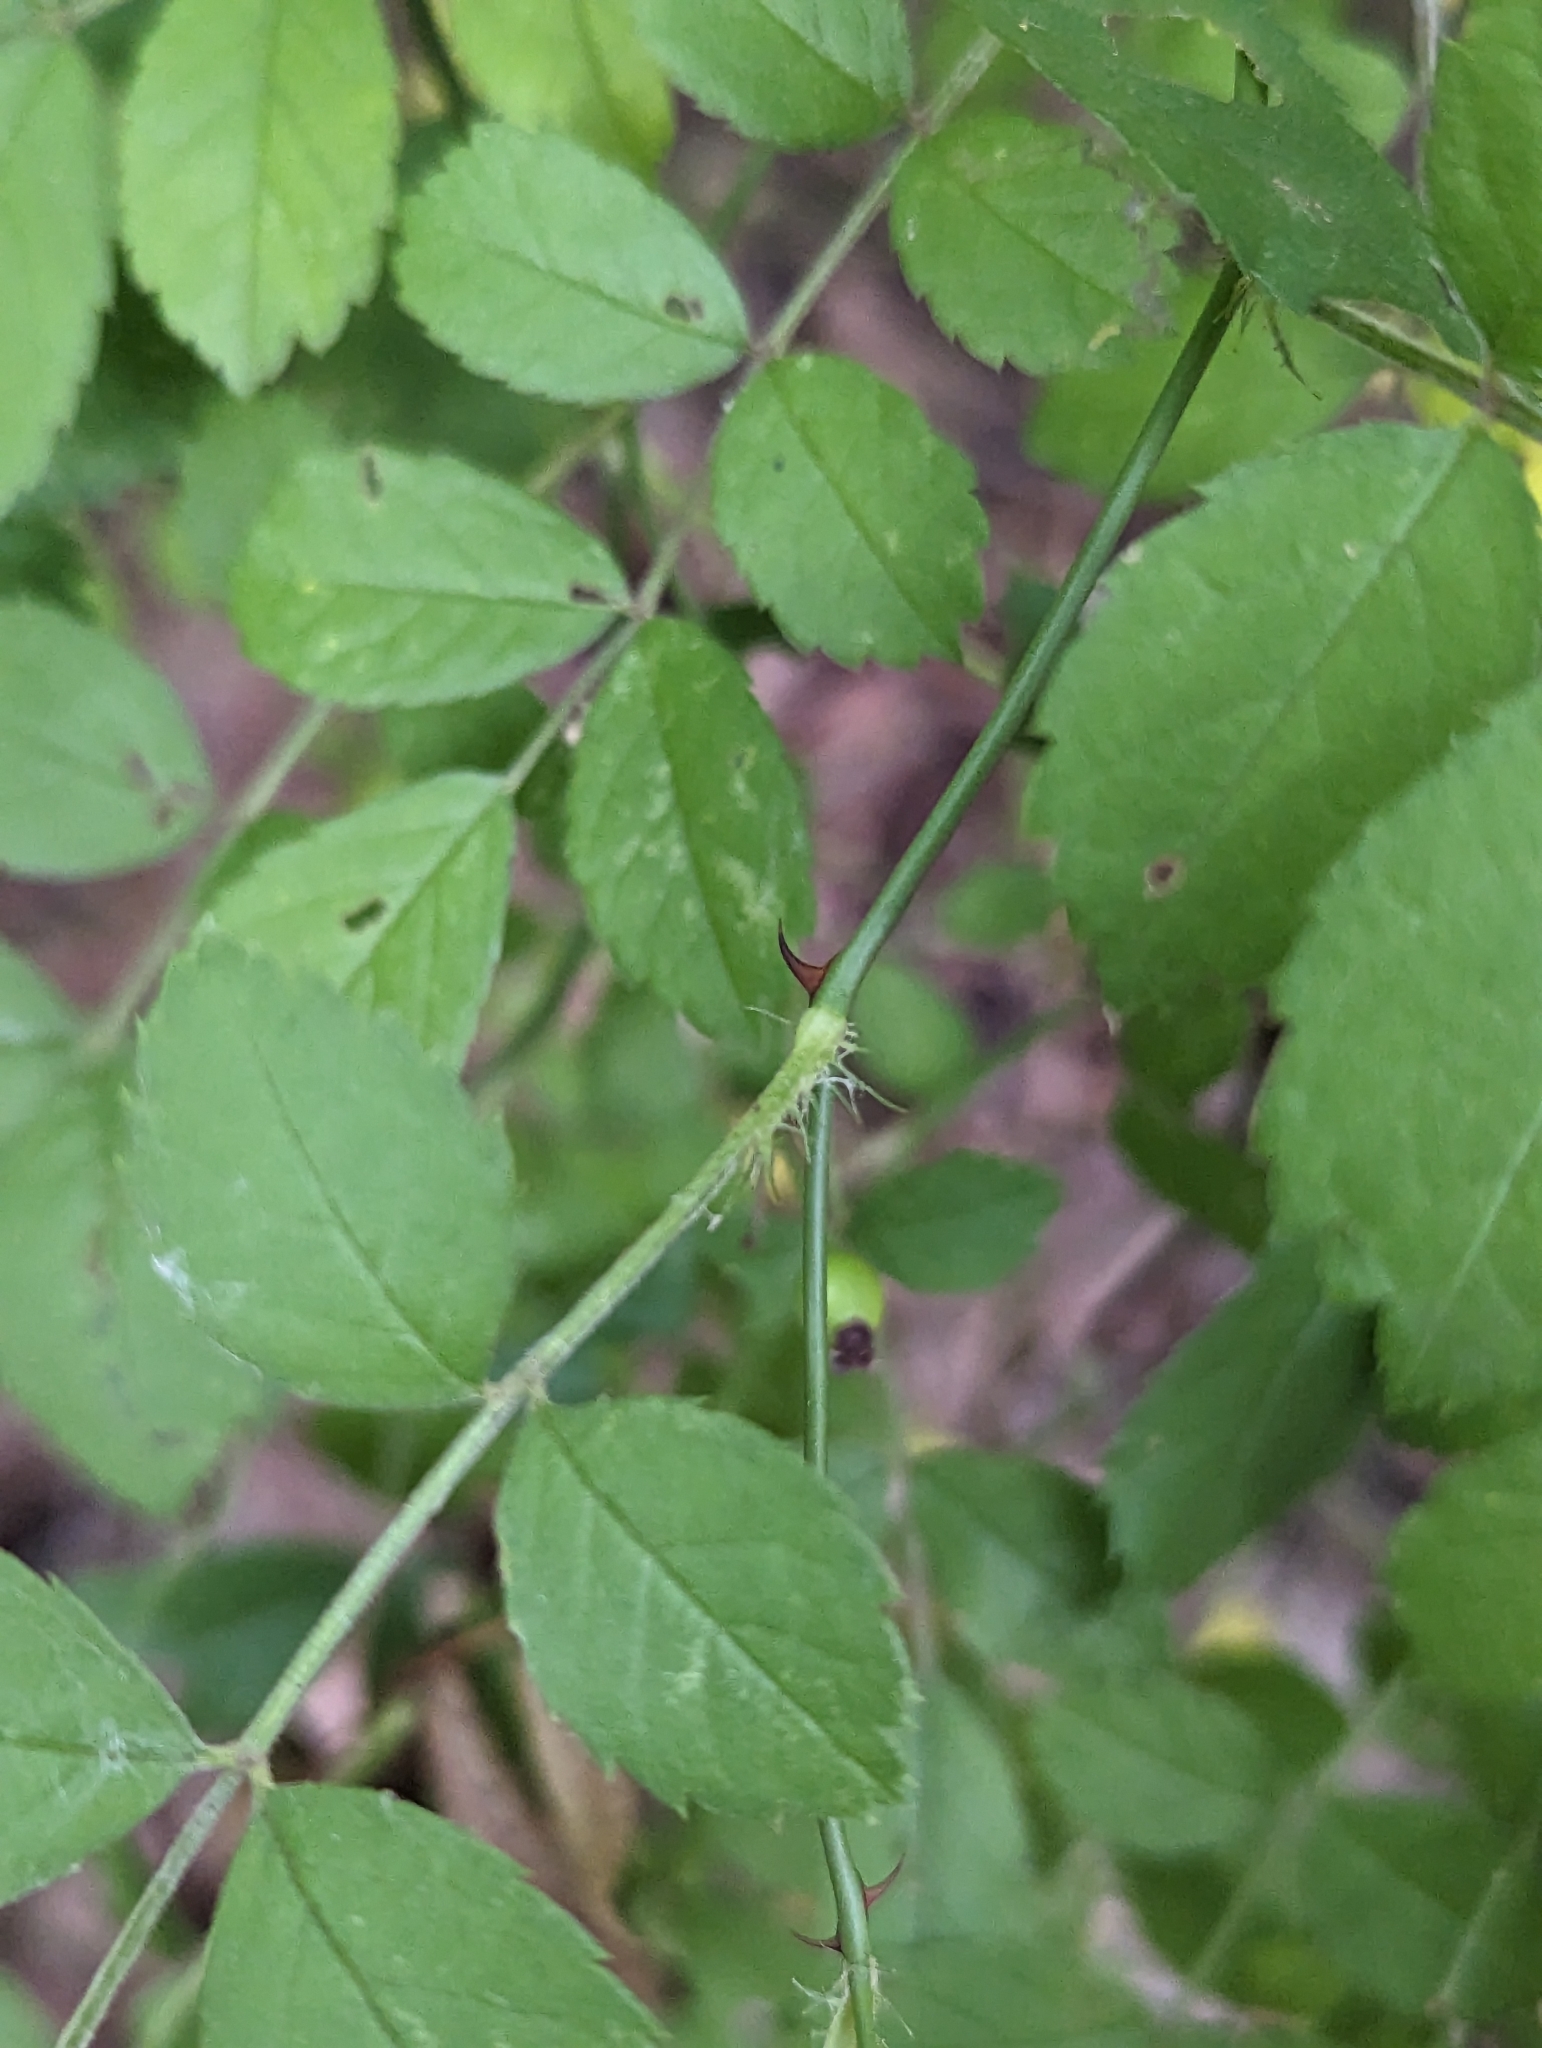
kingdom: Plantae
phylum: Tracheophyta
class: Magnoliopsida
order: Rosales
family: Rosaceae
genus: Rosa
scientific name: Rosa multiflora
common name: Multiflora rose
